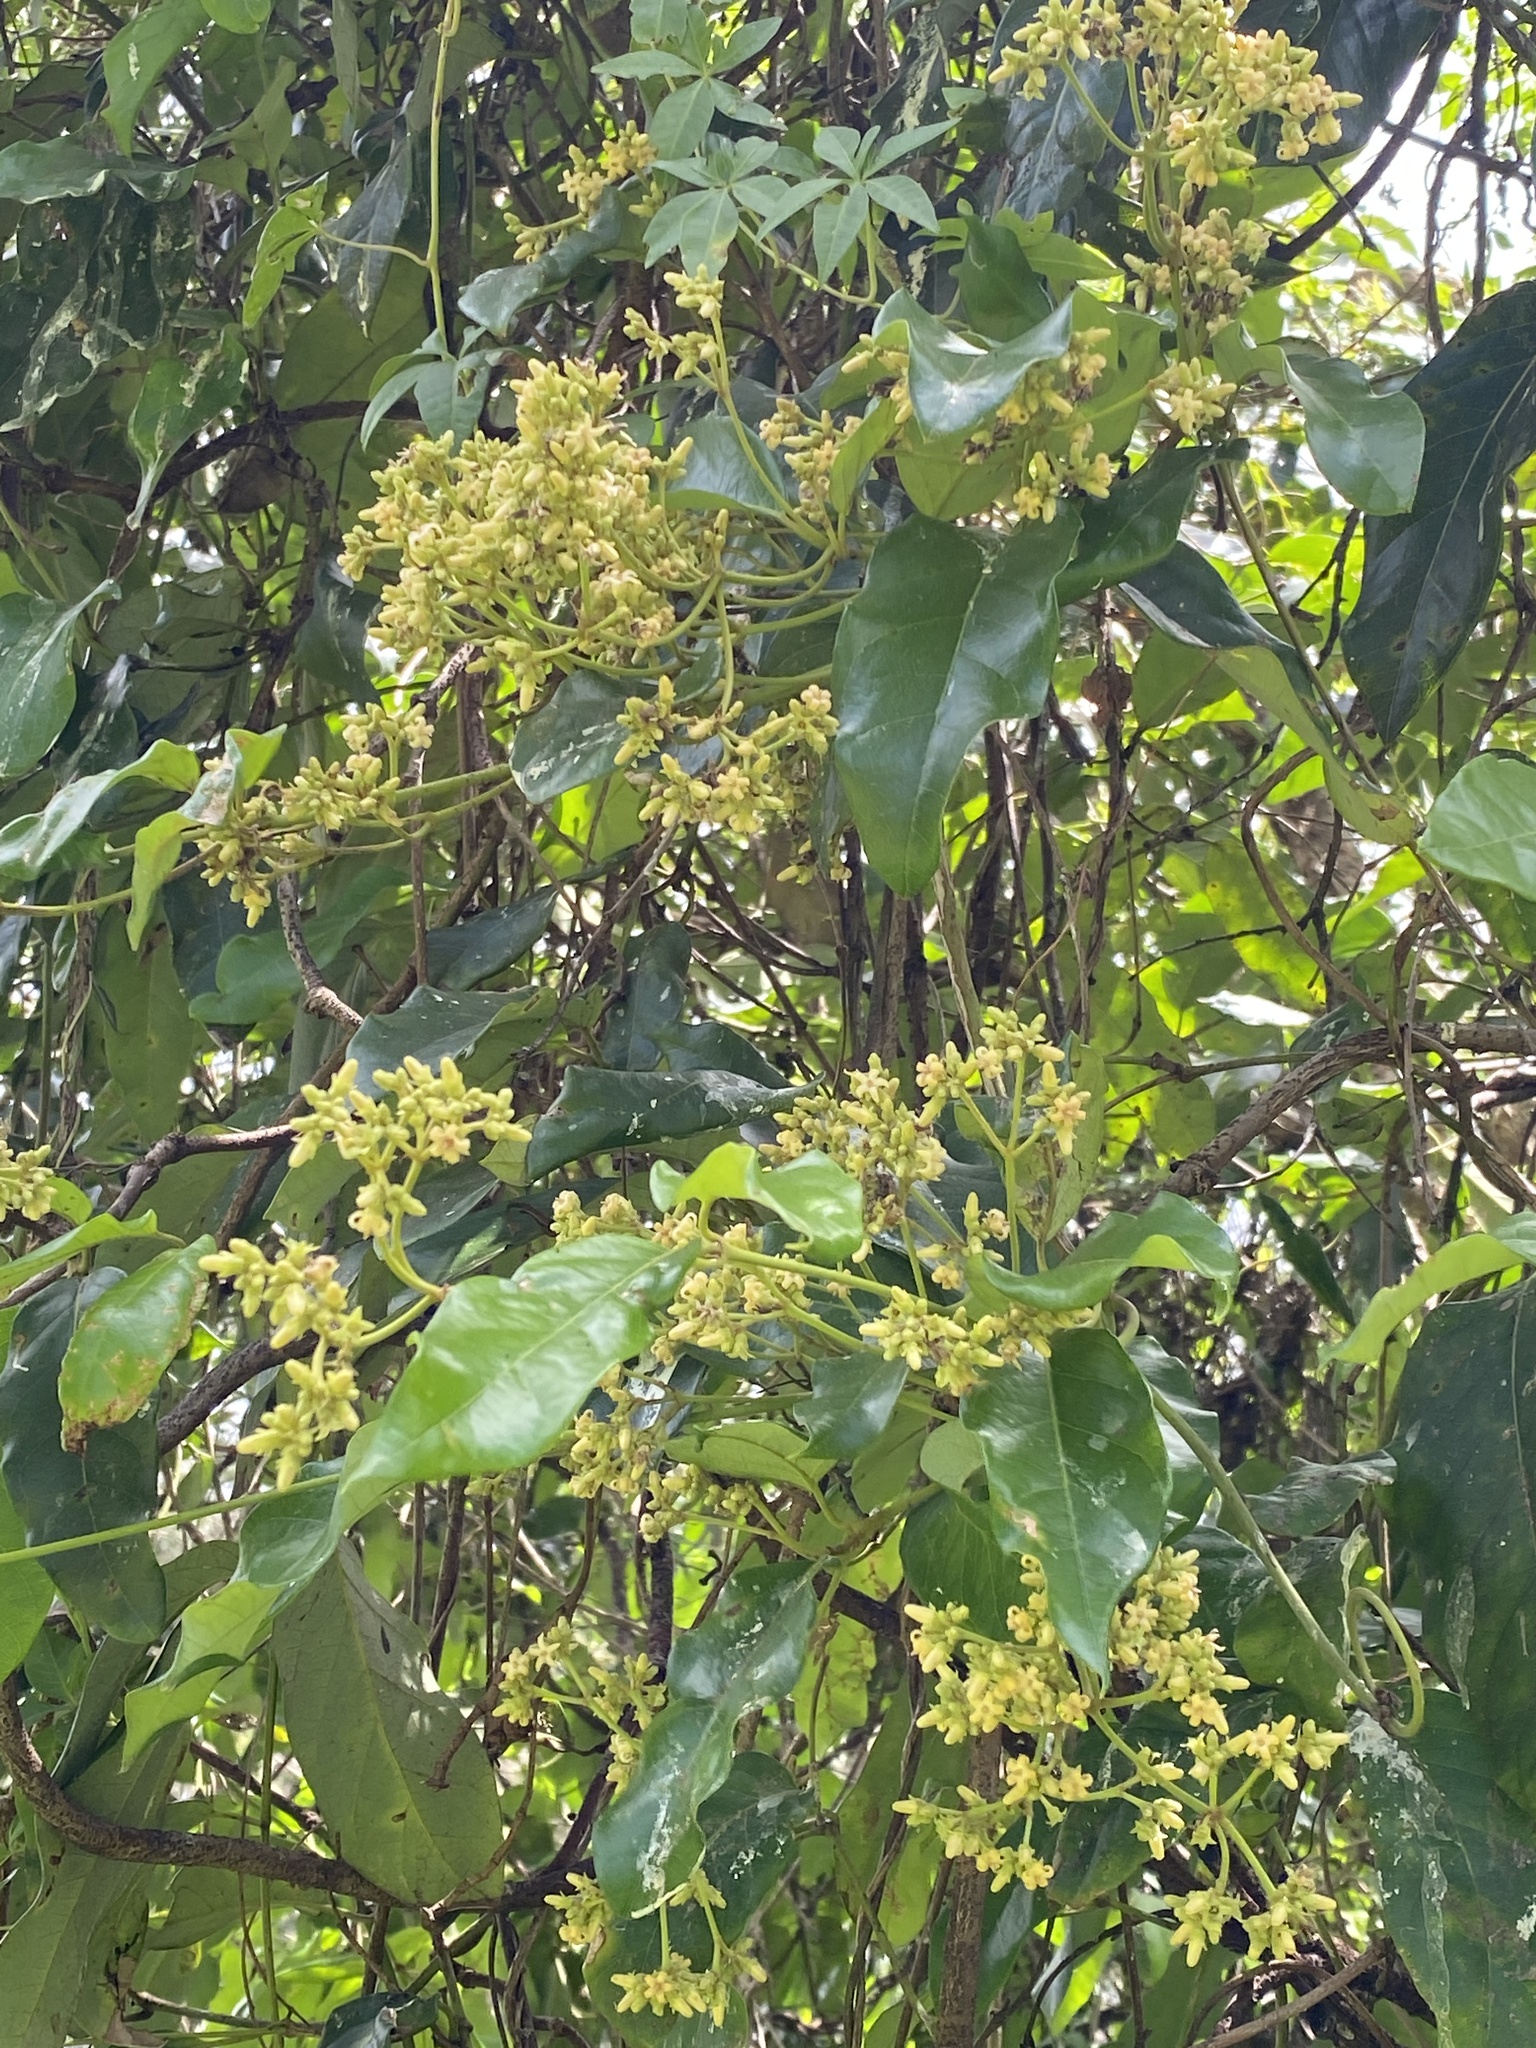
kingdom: Plantae
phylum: Tracheophyta
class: Magnoliopsida
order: Gentianales
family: Apocynaceae
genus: Parsonsia
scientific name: Parsonsia straminea
